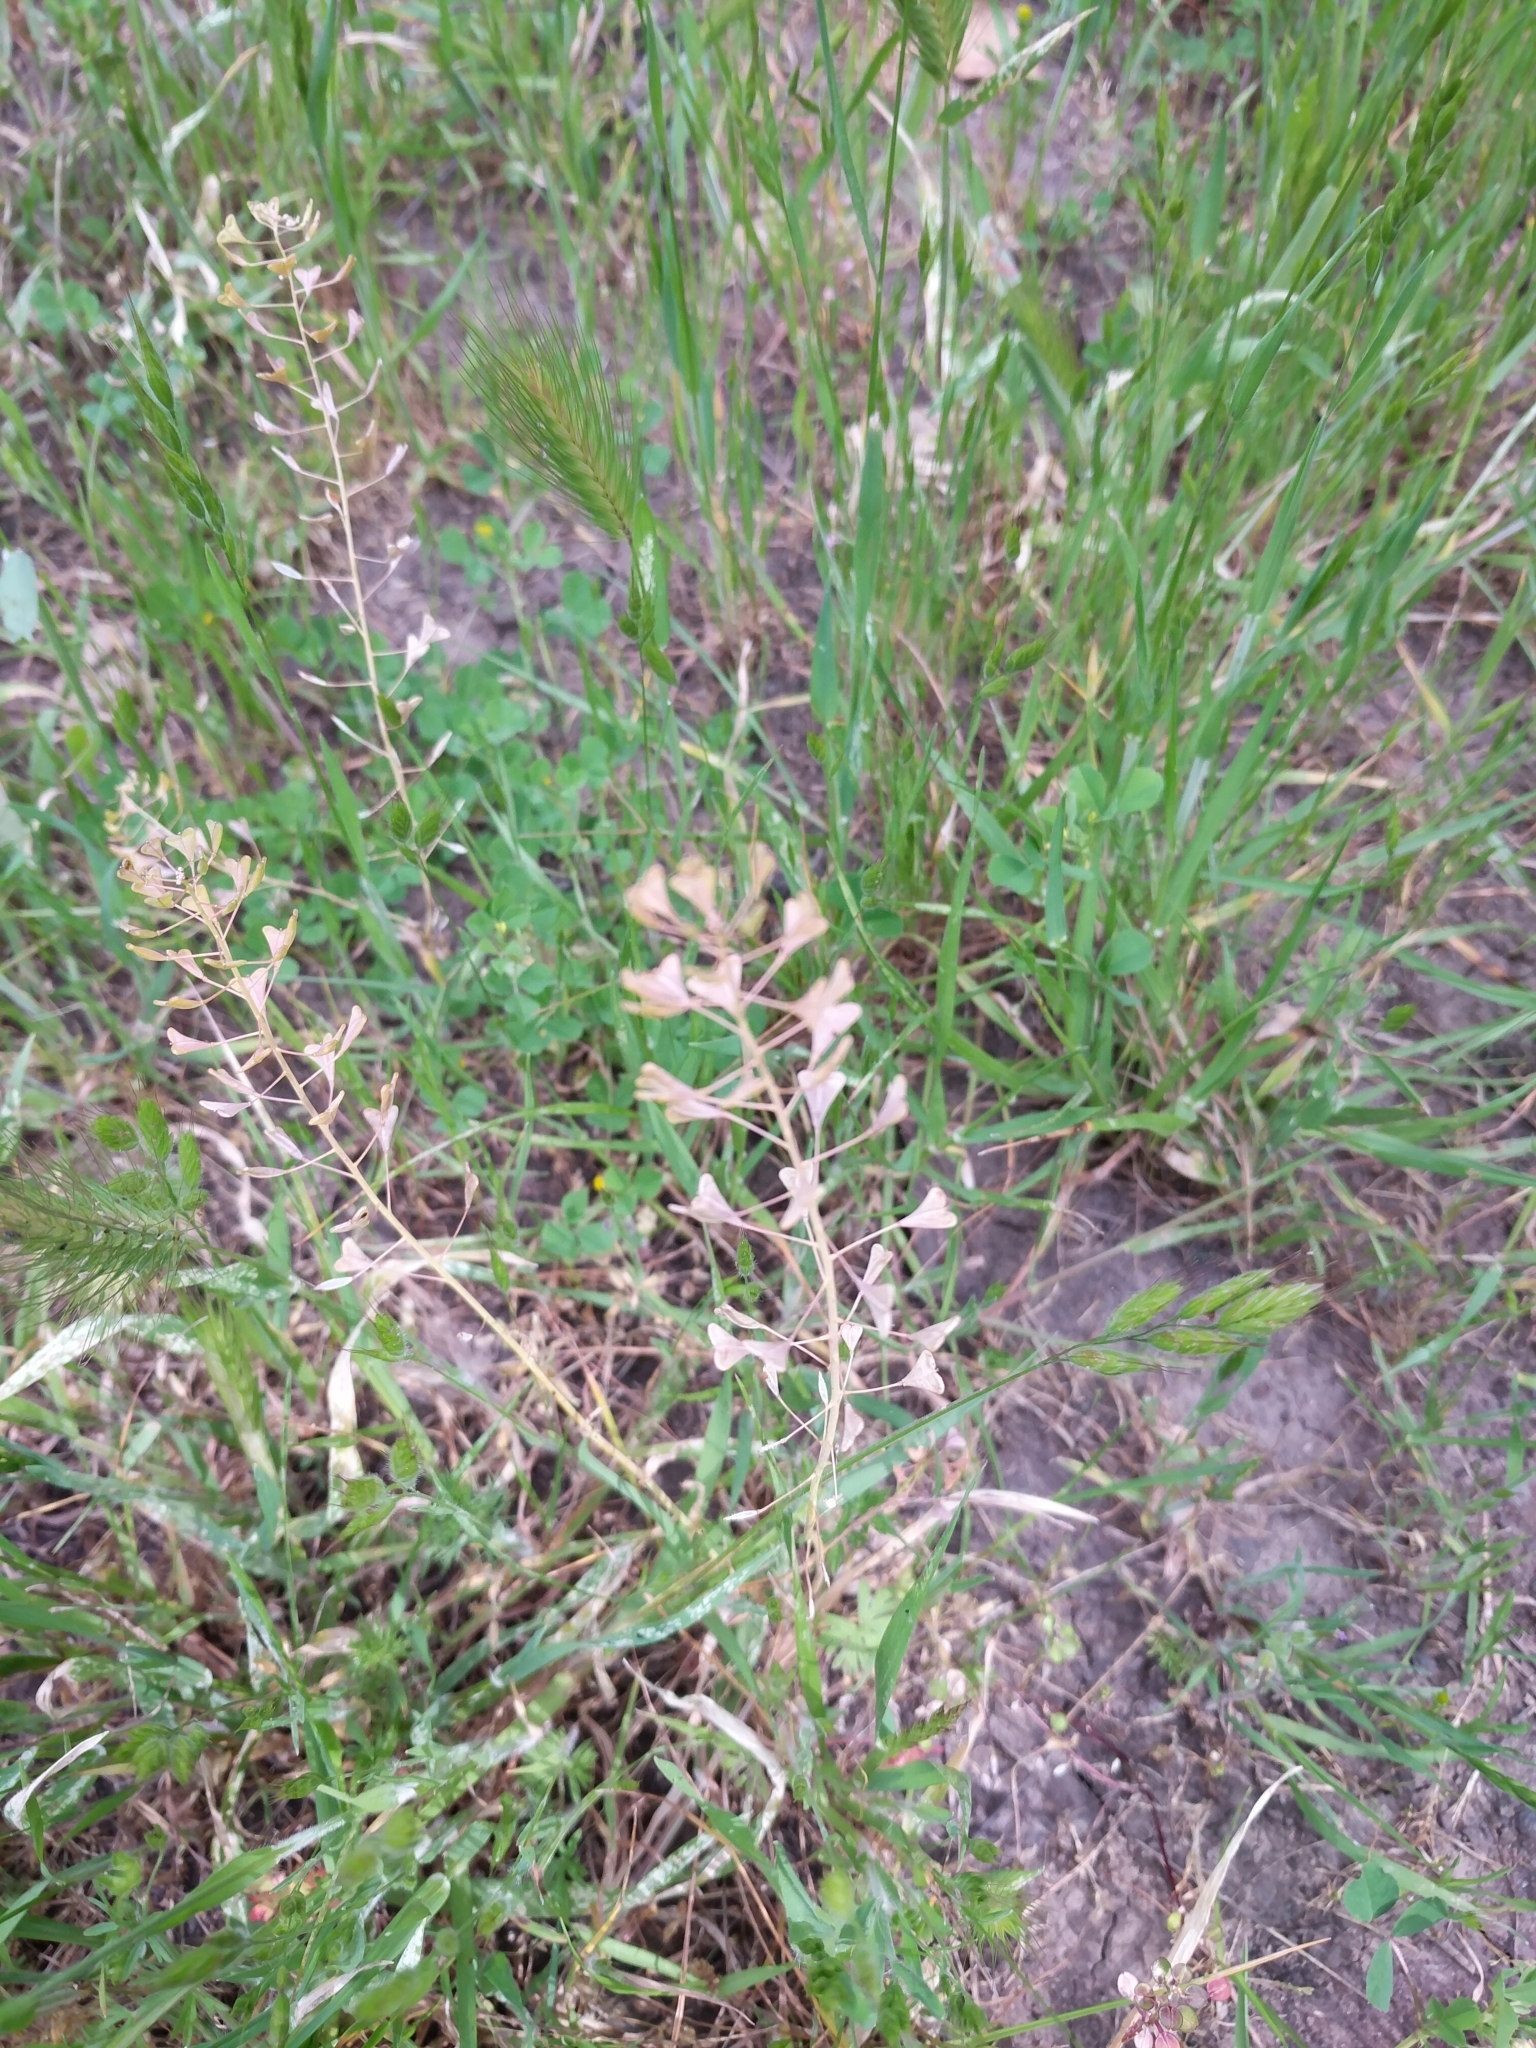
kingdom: Plantae
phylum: Tracheophyta
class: Magnoliopsida
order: Brassicales
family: Brassicaceae
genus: Capsella
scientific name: Capsella bursa-pastoris
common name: Shepherd's purse
